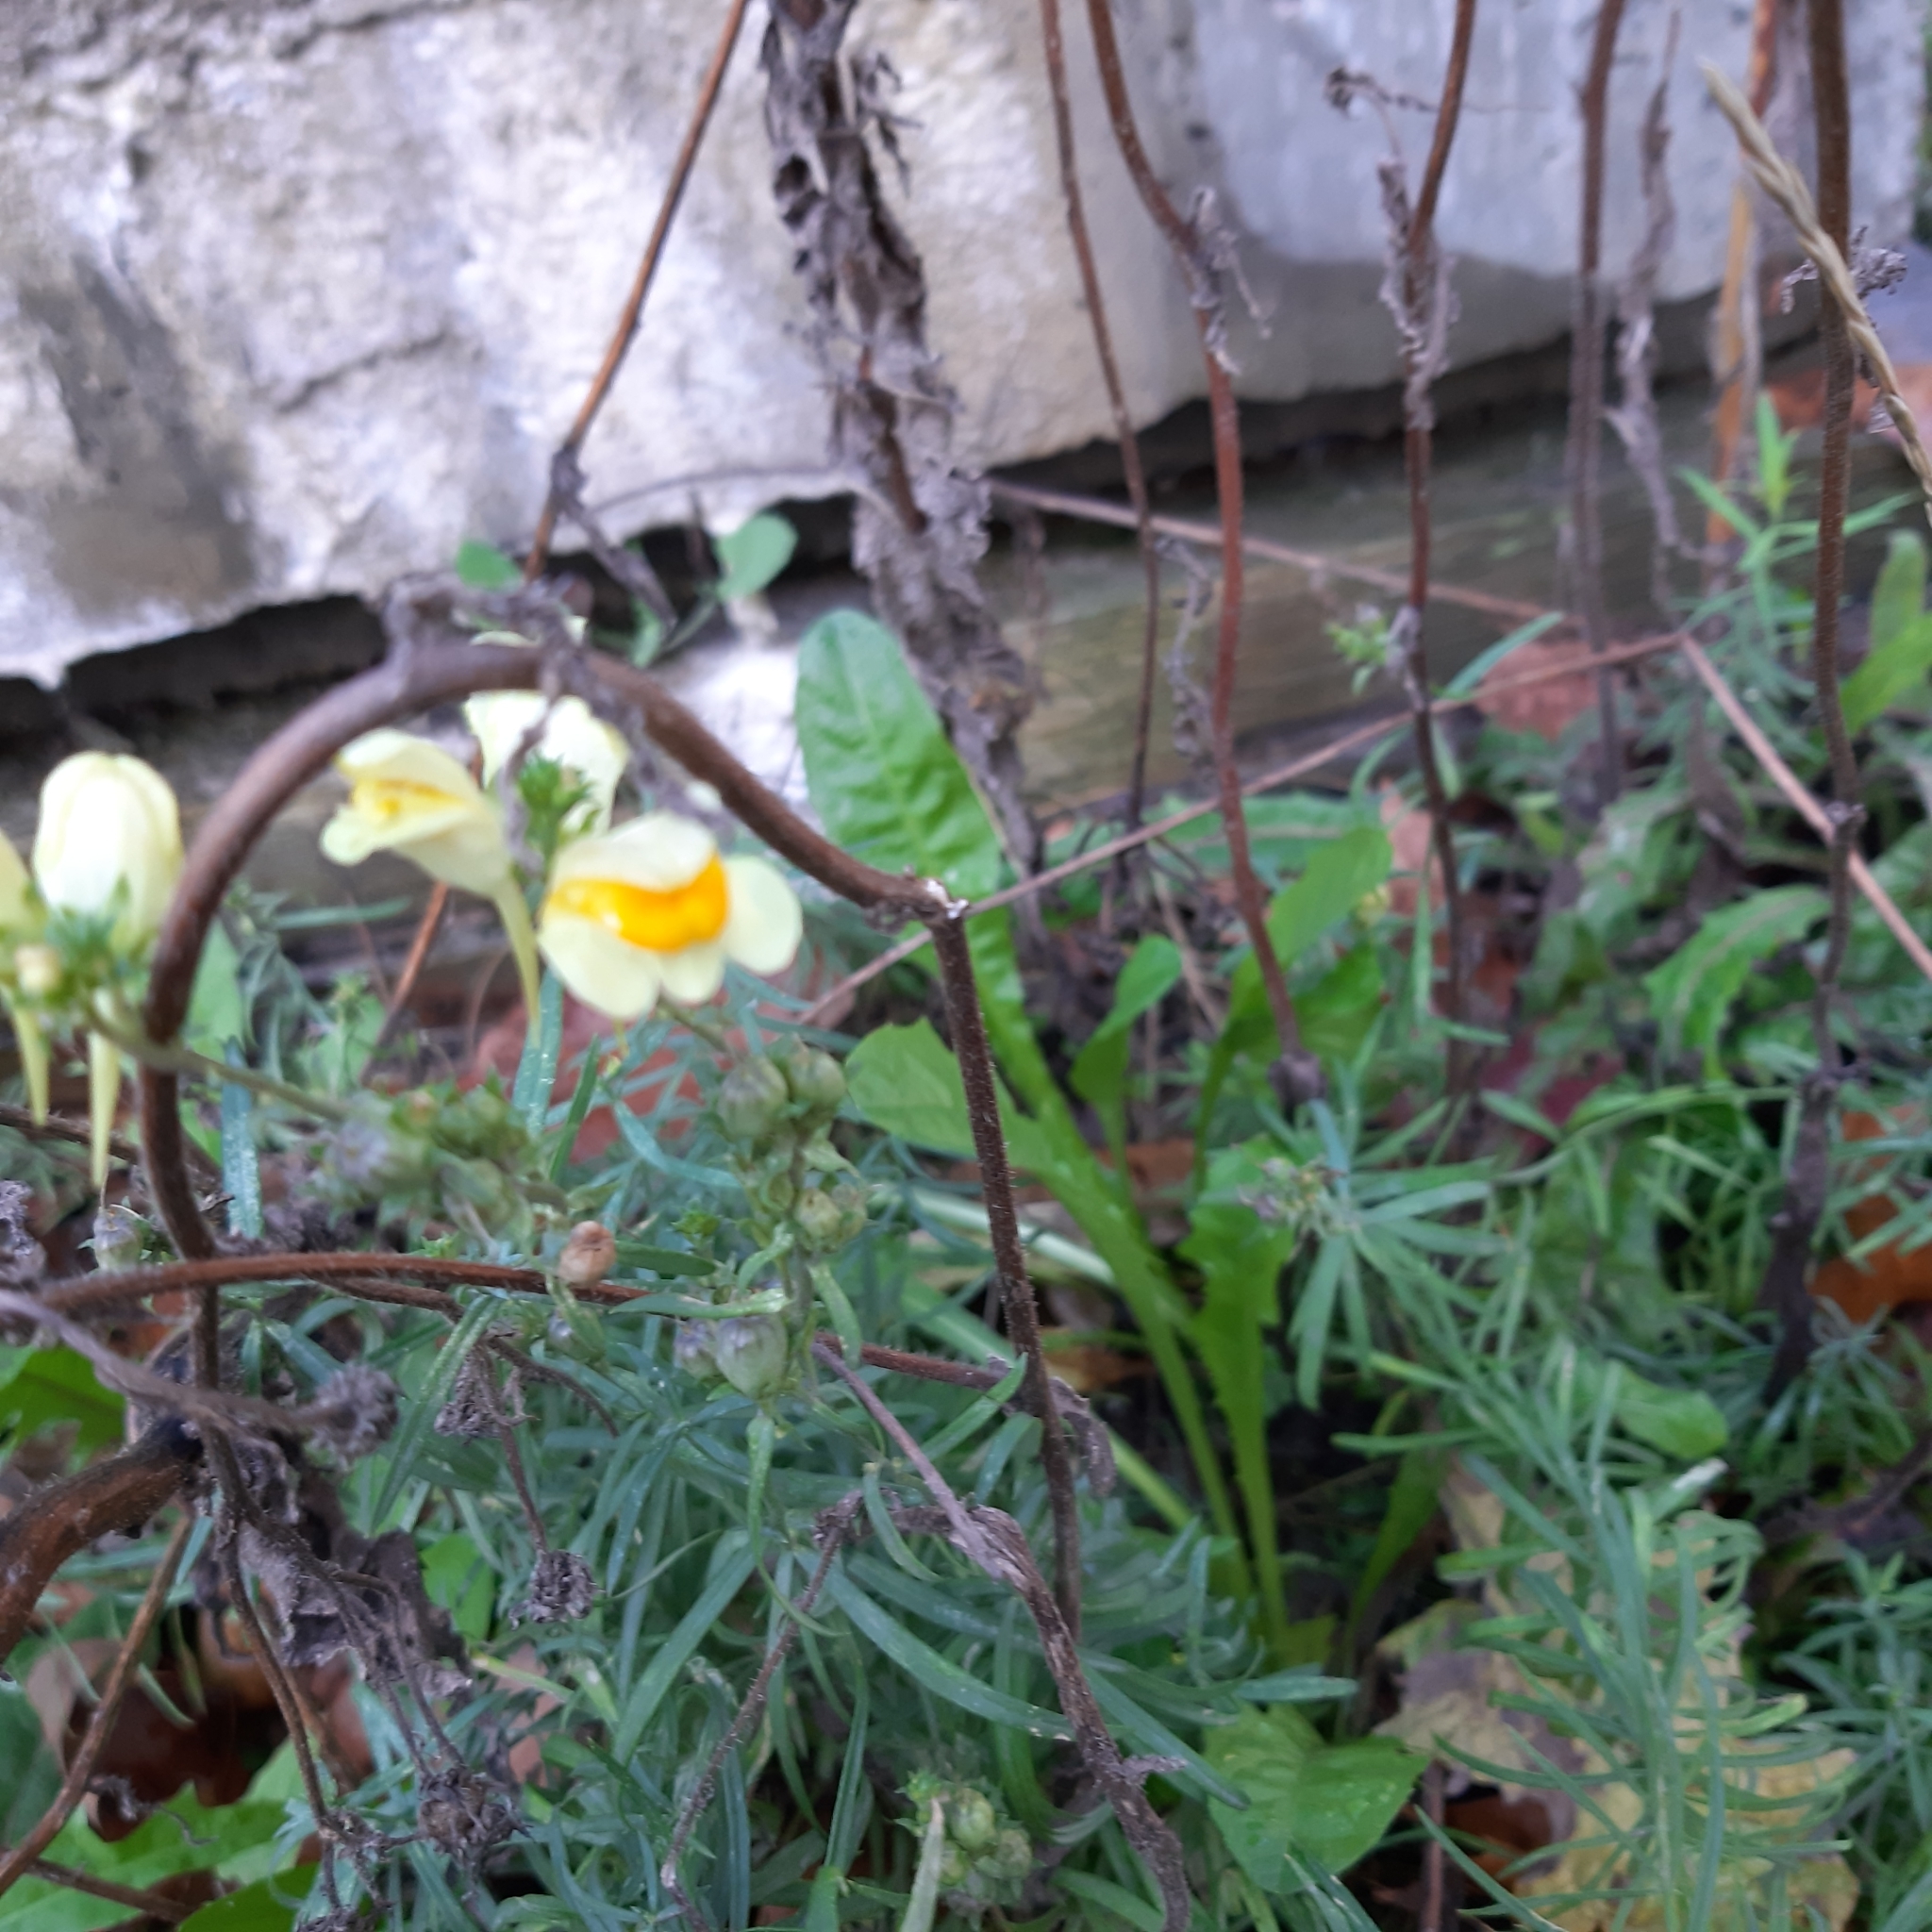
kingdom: Plantae
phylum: Tracheophyta
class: Magnoliopsida
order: Lamiales
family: Plantaginaceae
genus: Linaria
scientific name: Linaria vulgaris
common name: Butter and eggs
